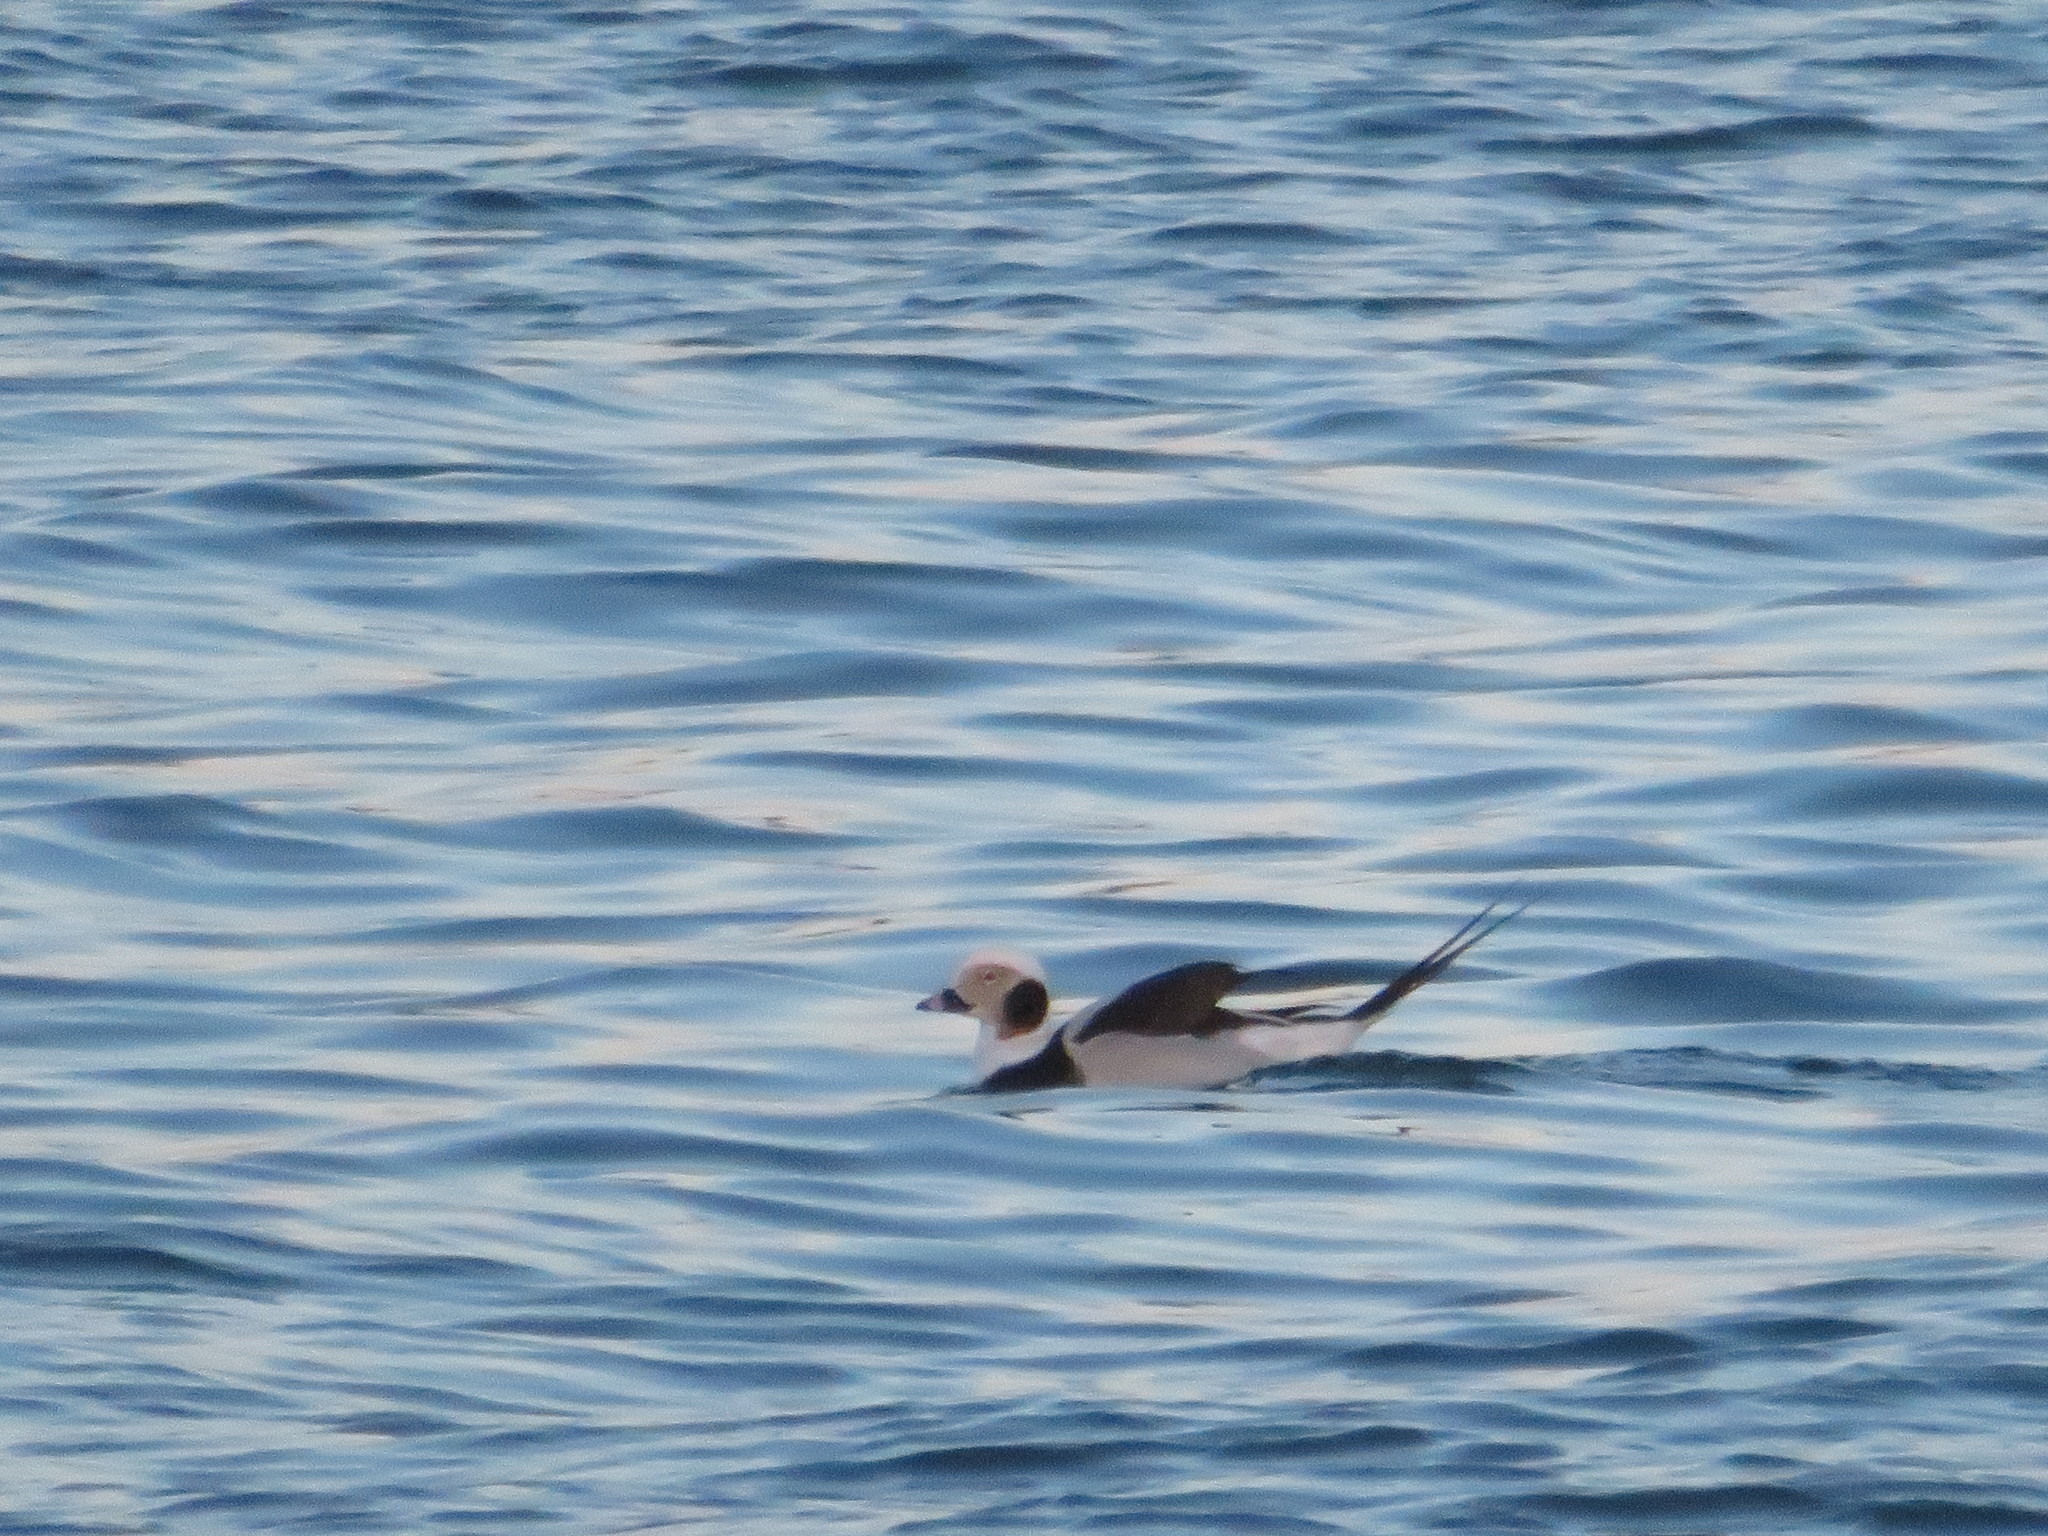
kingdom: Animalia
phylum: Chordata
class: Aves
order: Anseriformes
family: Anatidae
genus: Clangula
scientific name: Clangula hyemalis
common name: Long-tailed duck
